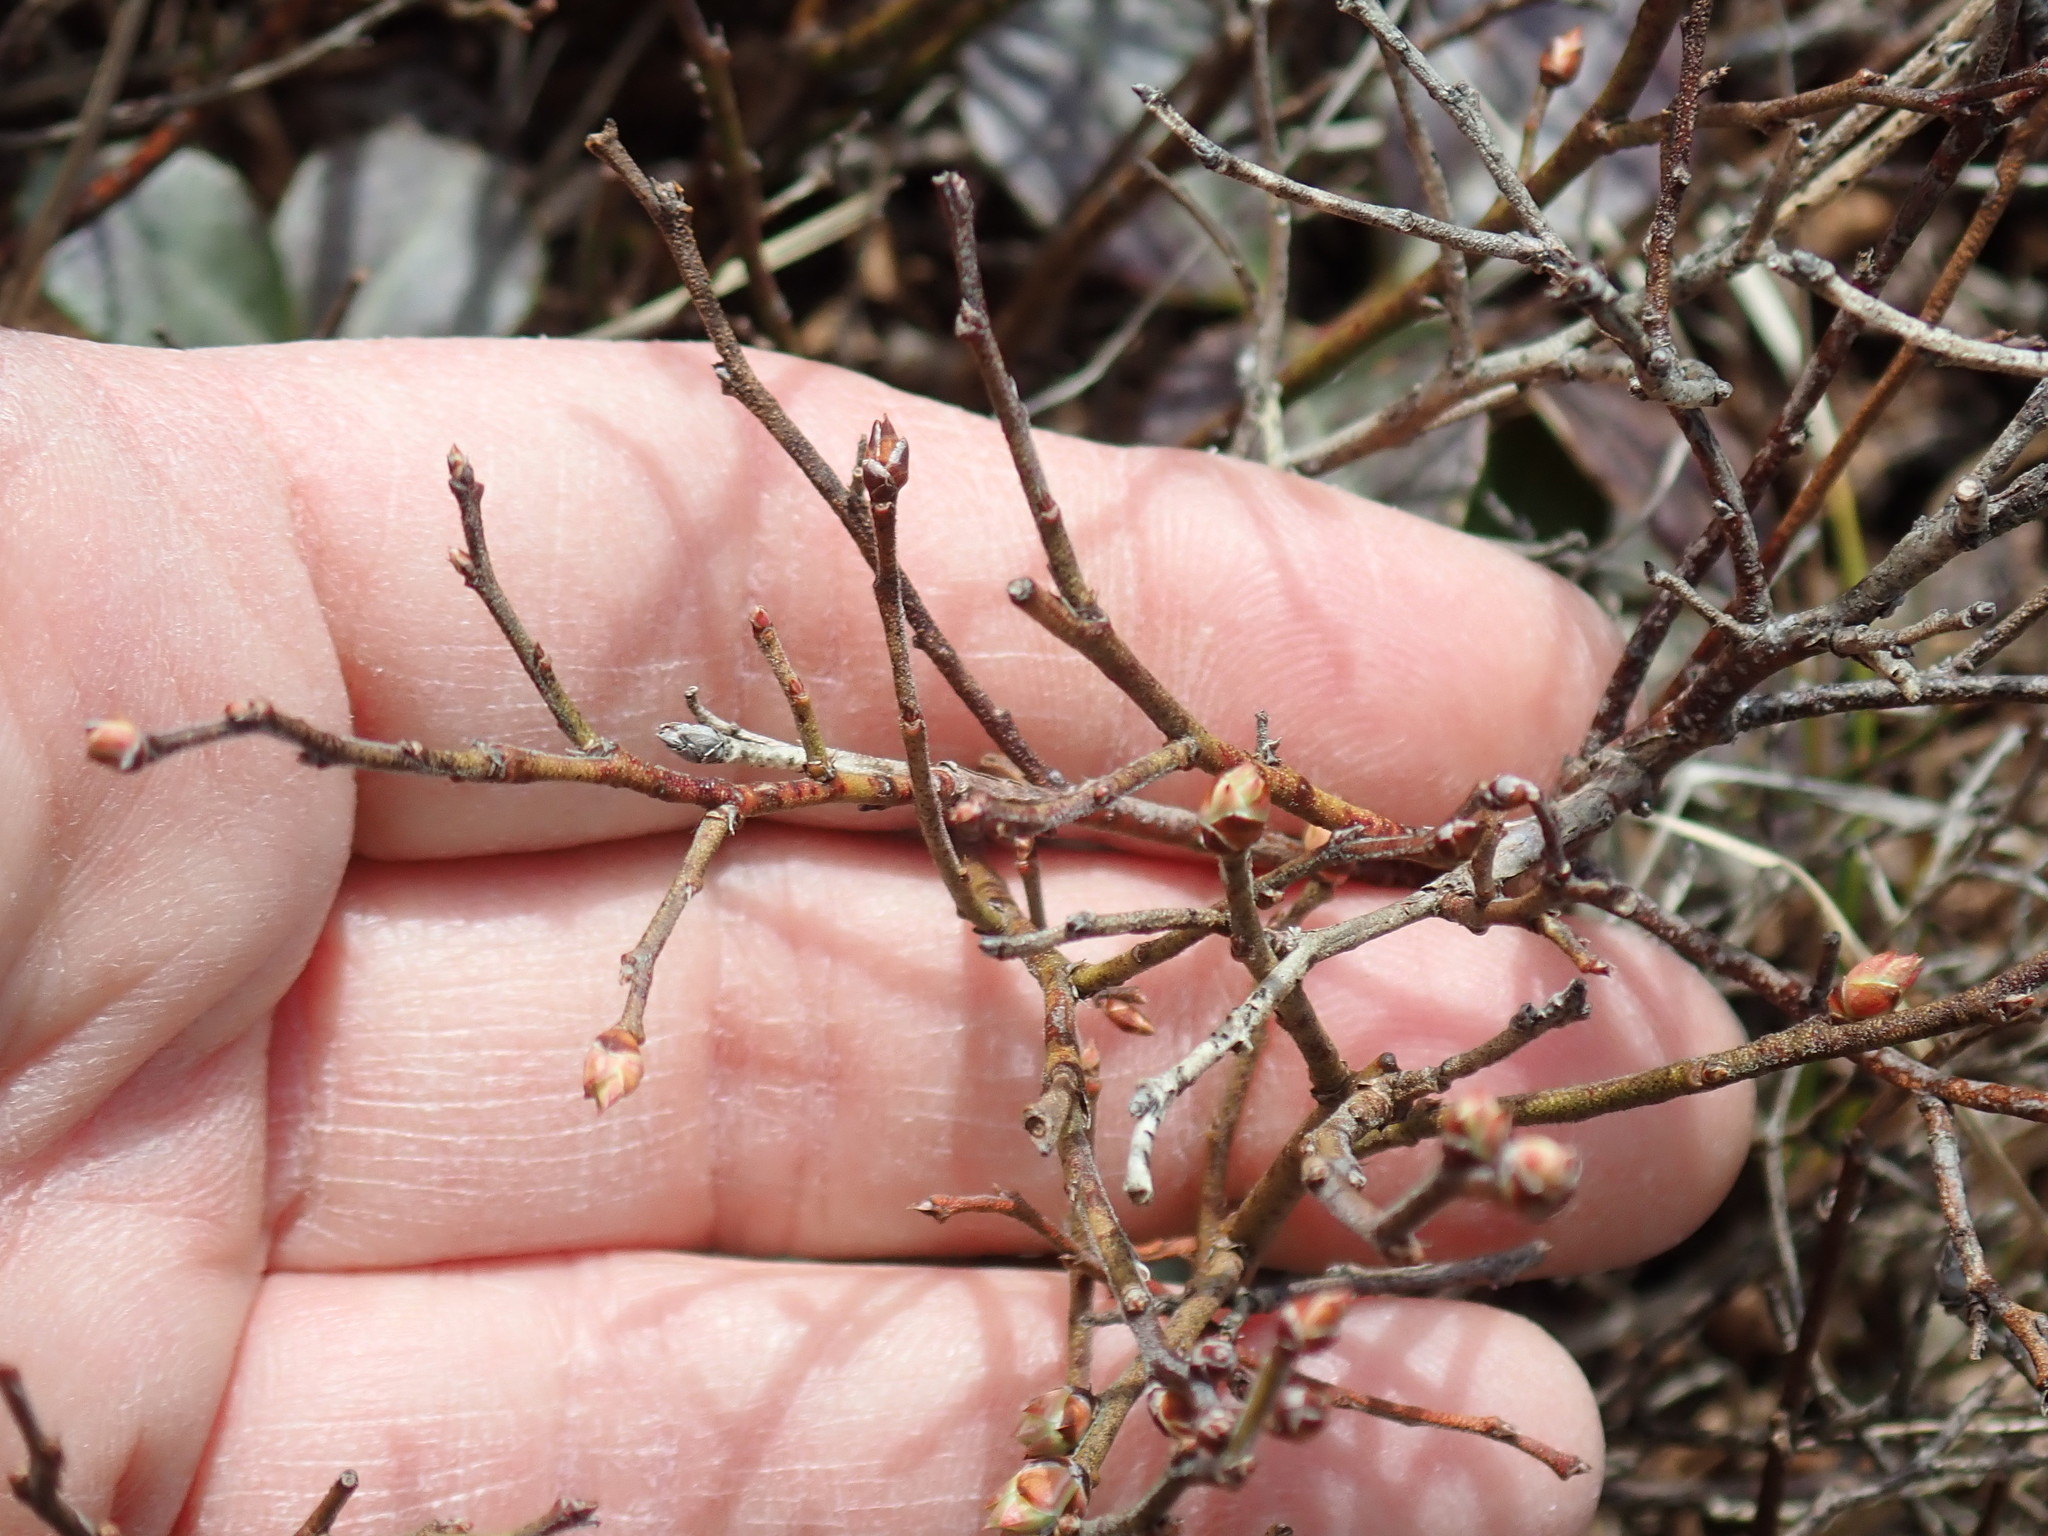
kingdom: Plantae
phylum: Tracheophyta
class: Magnoliopsida
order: Ericales
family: Ericaceae
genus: Vaccinium
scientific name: Vaccinium angustifolium
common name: Early lowbush blueberry
